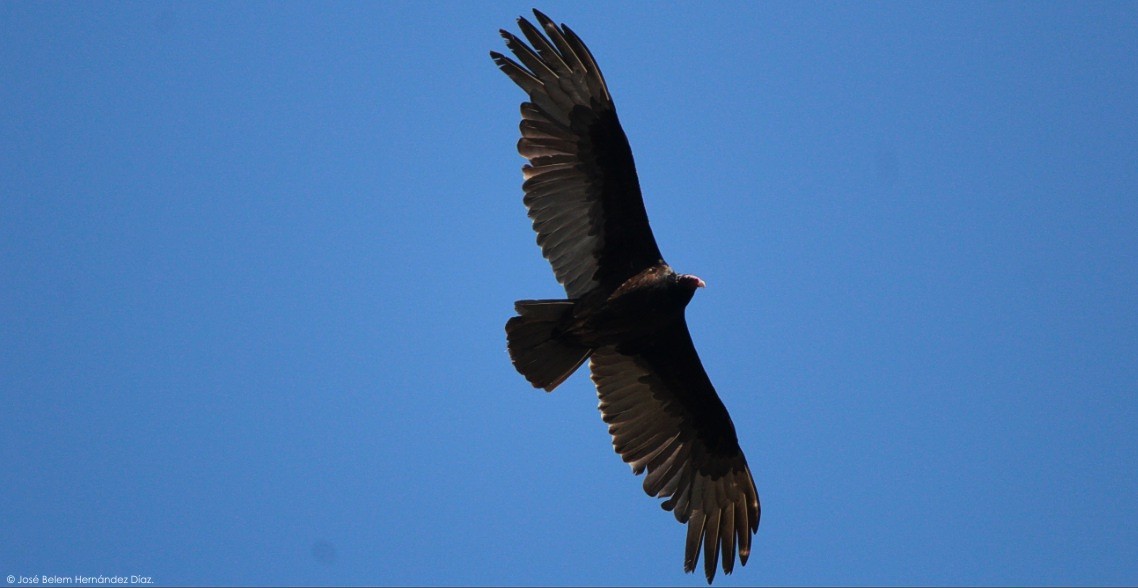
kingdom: Animalia
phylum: Chordata
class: Aves
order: Accipitriformes
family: Cathartidae
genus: Cathartes
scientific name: Cathartes aura
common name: Turkey vulture
